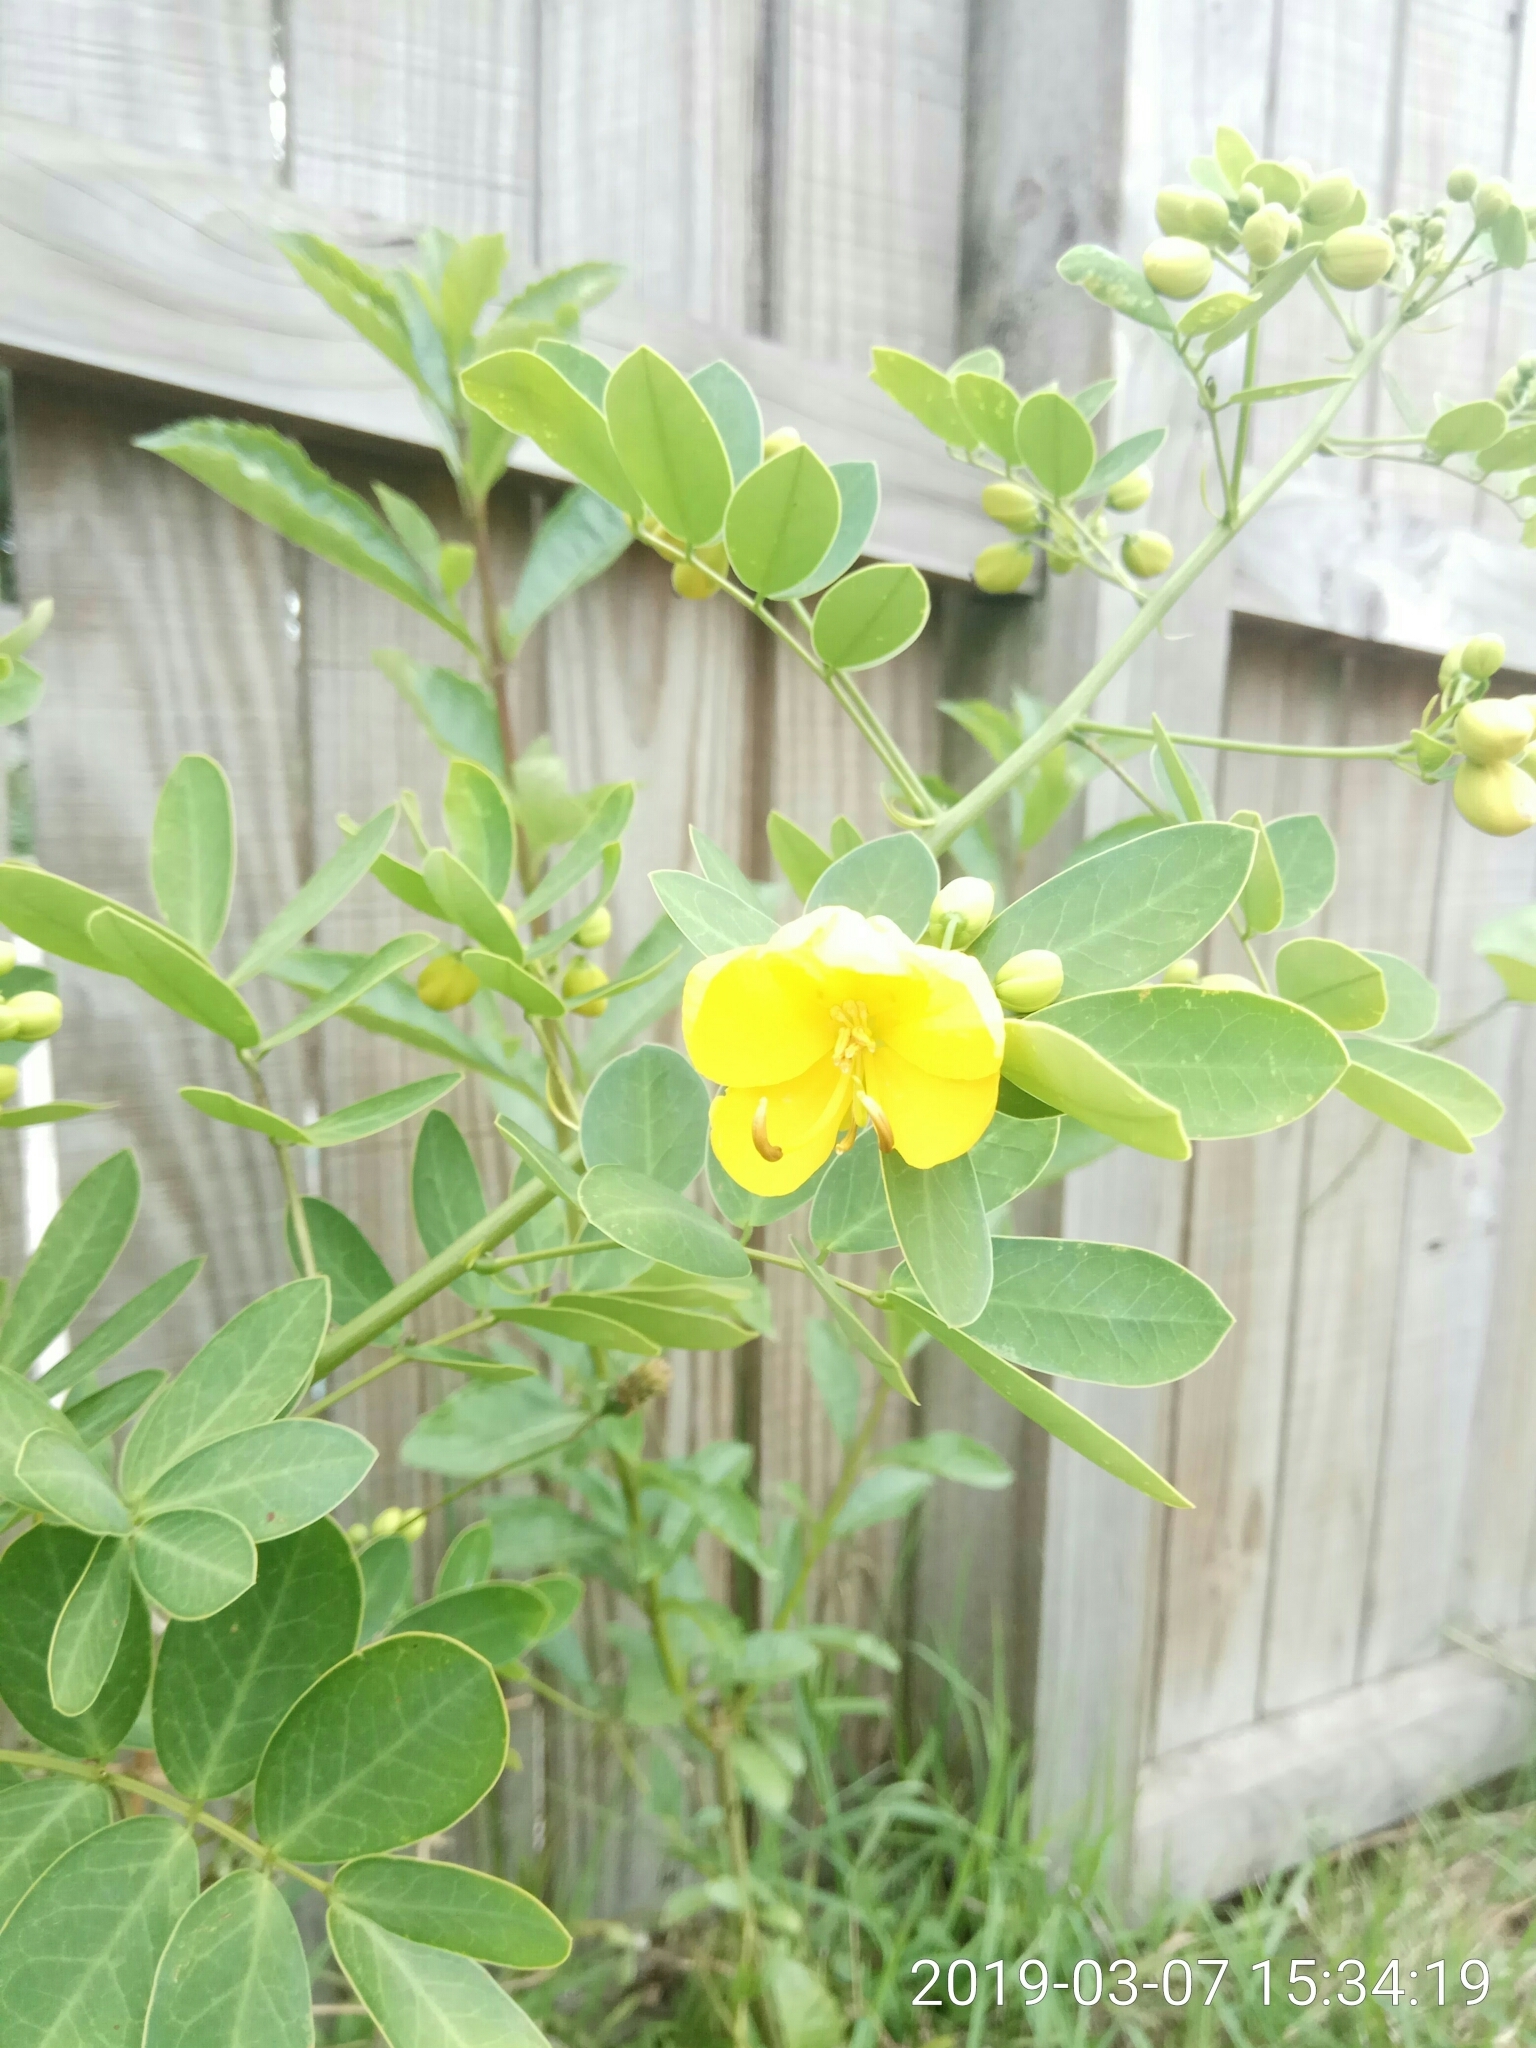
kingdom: Plantae
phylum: Tracheophyta
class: Magnoliopsida
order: Fabales
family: Fabaceae
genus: Senna
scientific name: Senna pendula
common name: Easter cassia
